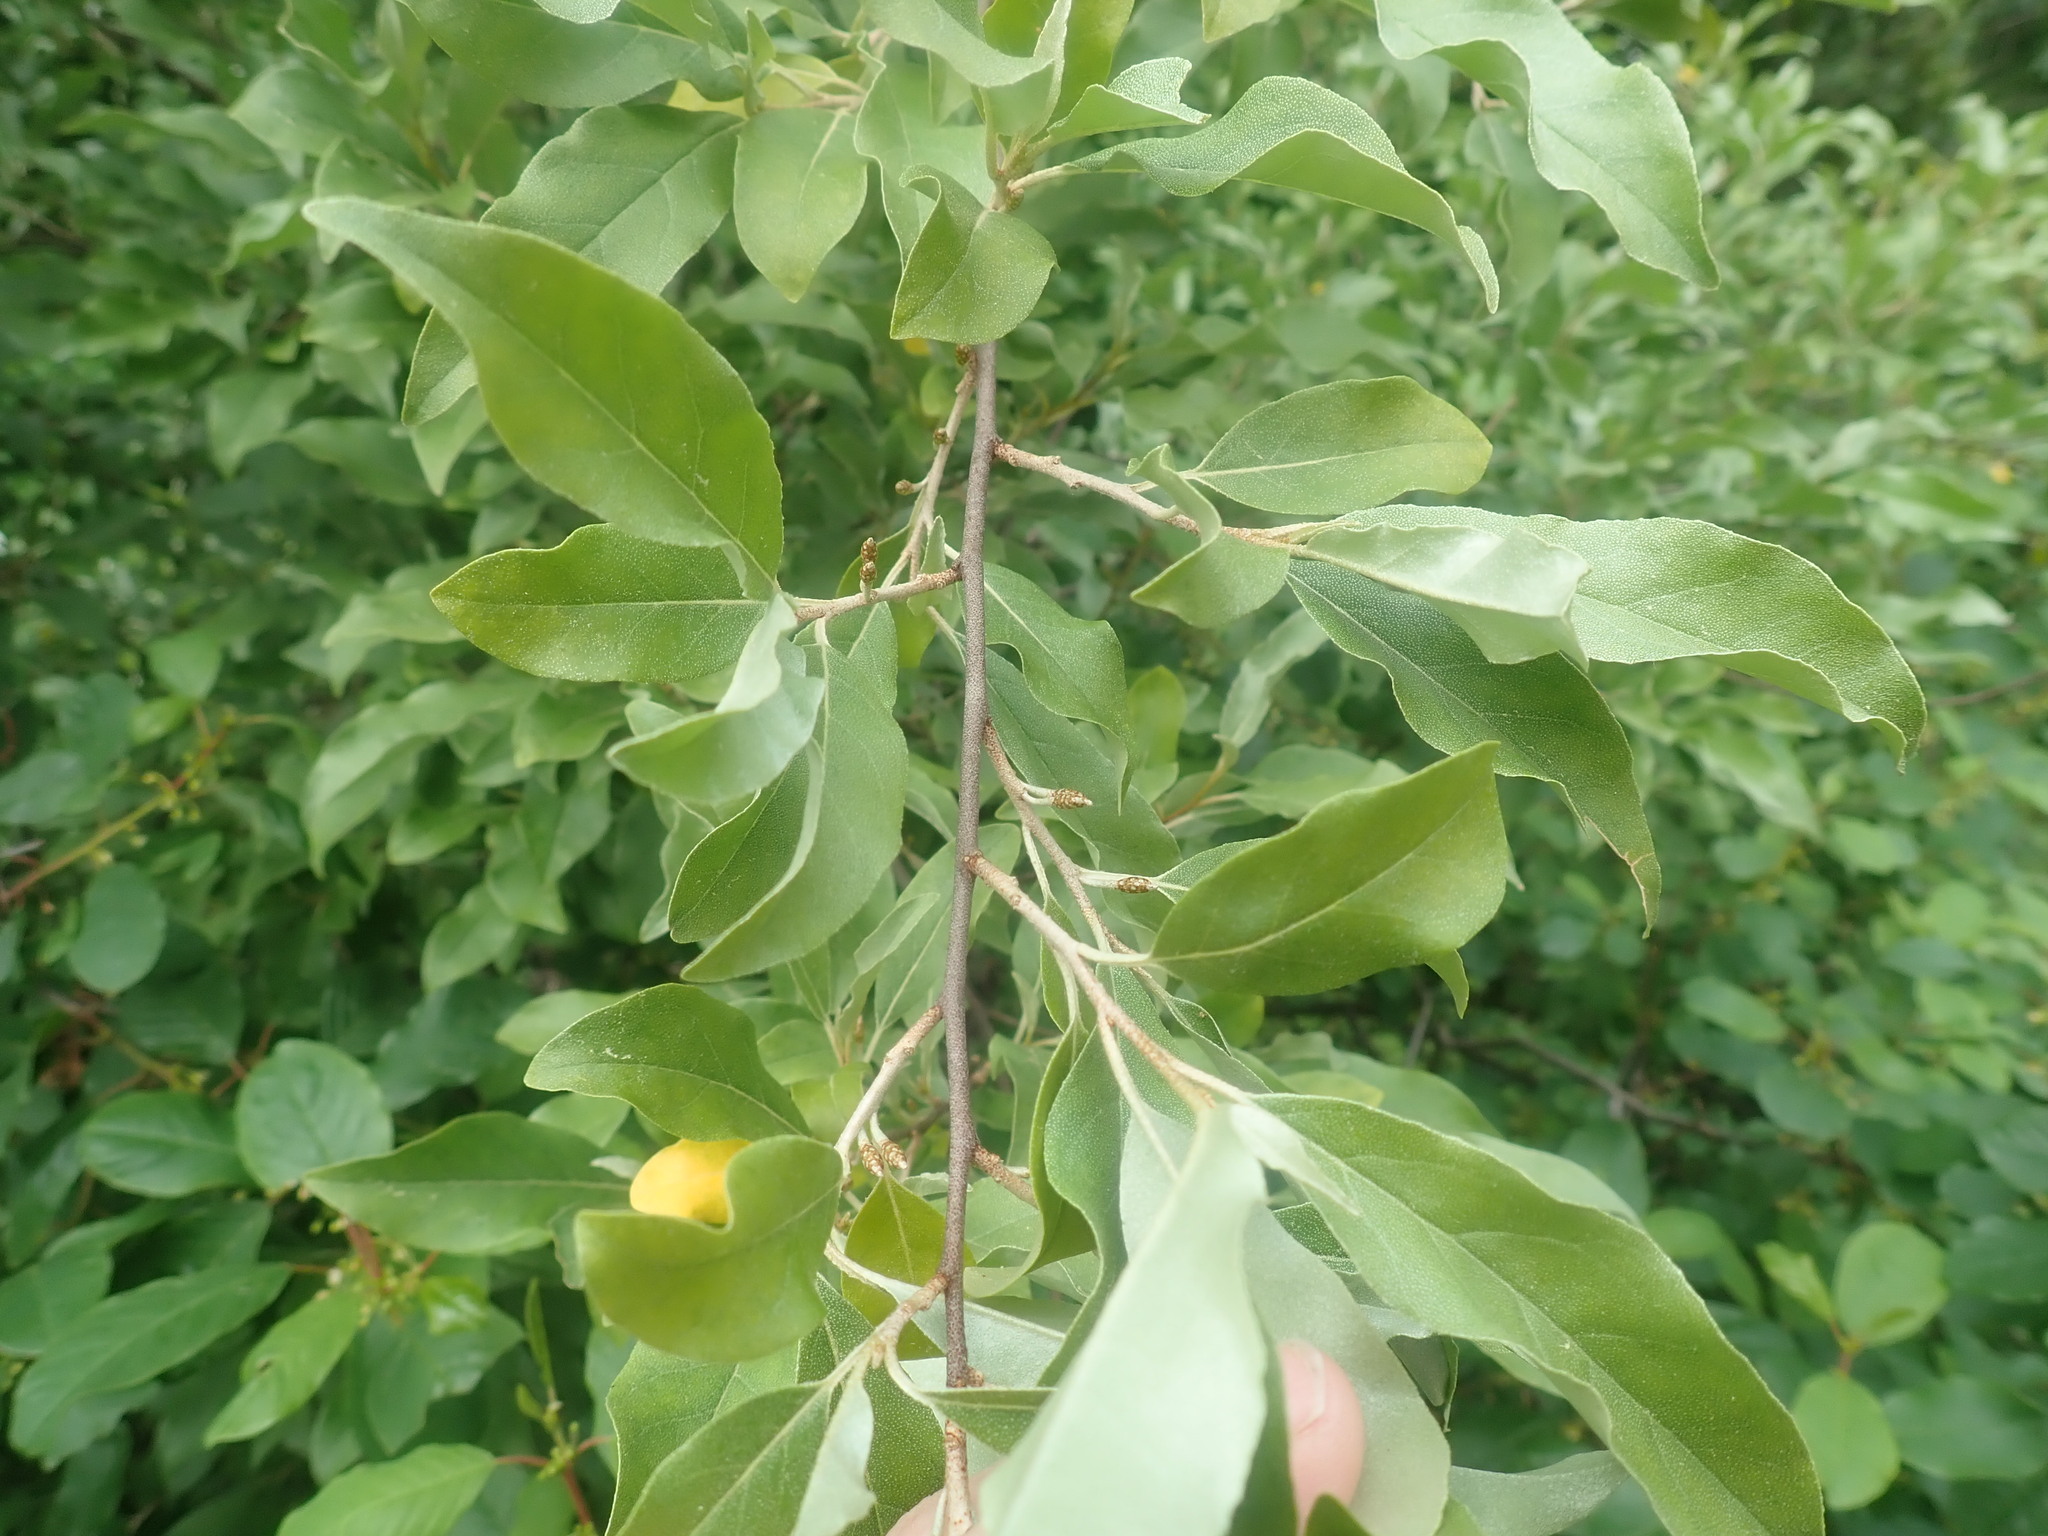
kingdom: Plantae
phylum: Tracheophyta
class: Magnoliopsida
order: Rosales
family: Elaeagnaceae
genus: Elaeagnus
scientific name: Elaeagnus umbellata
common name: Autumn olive
